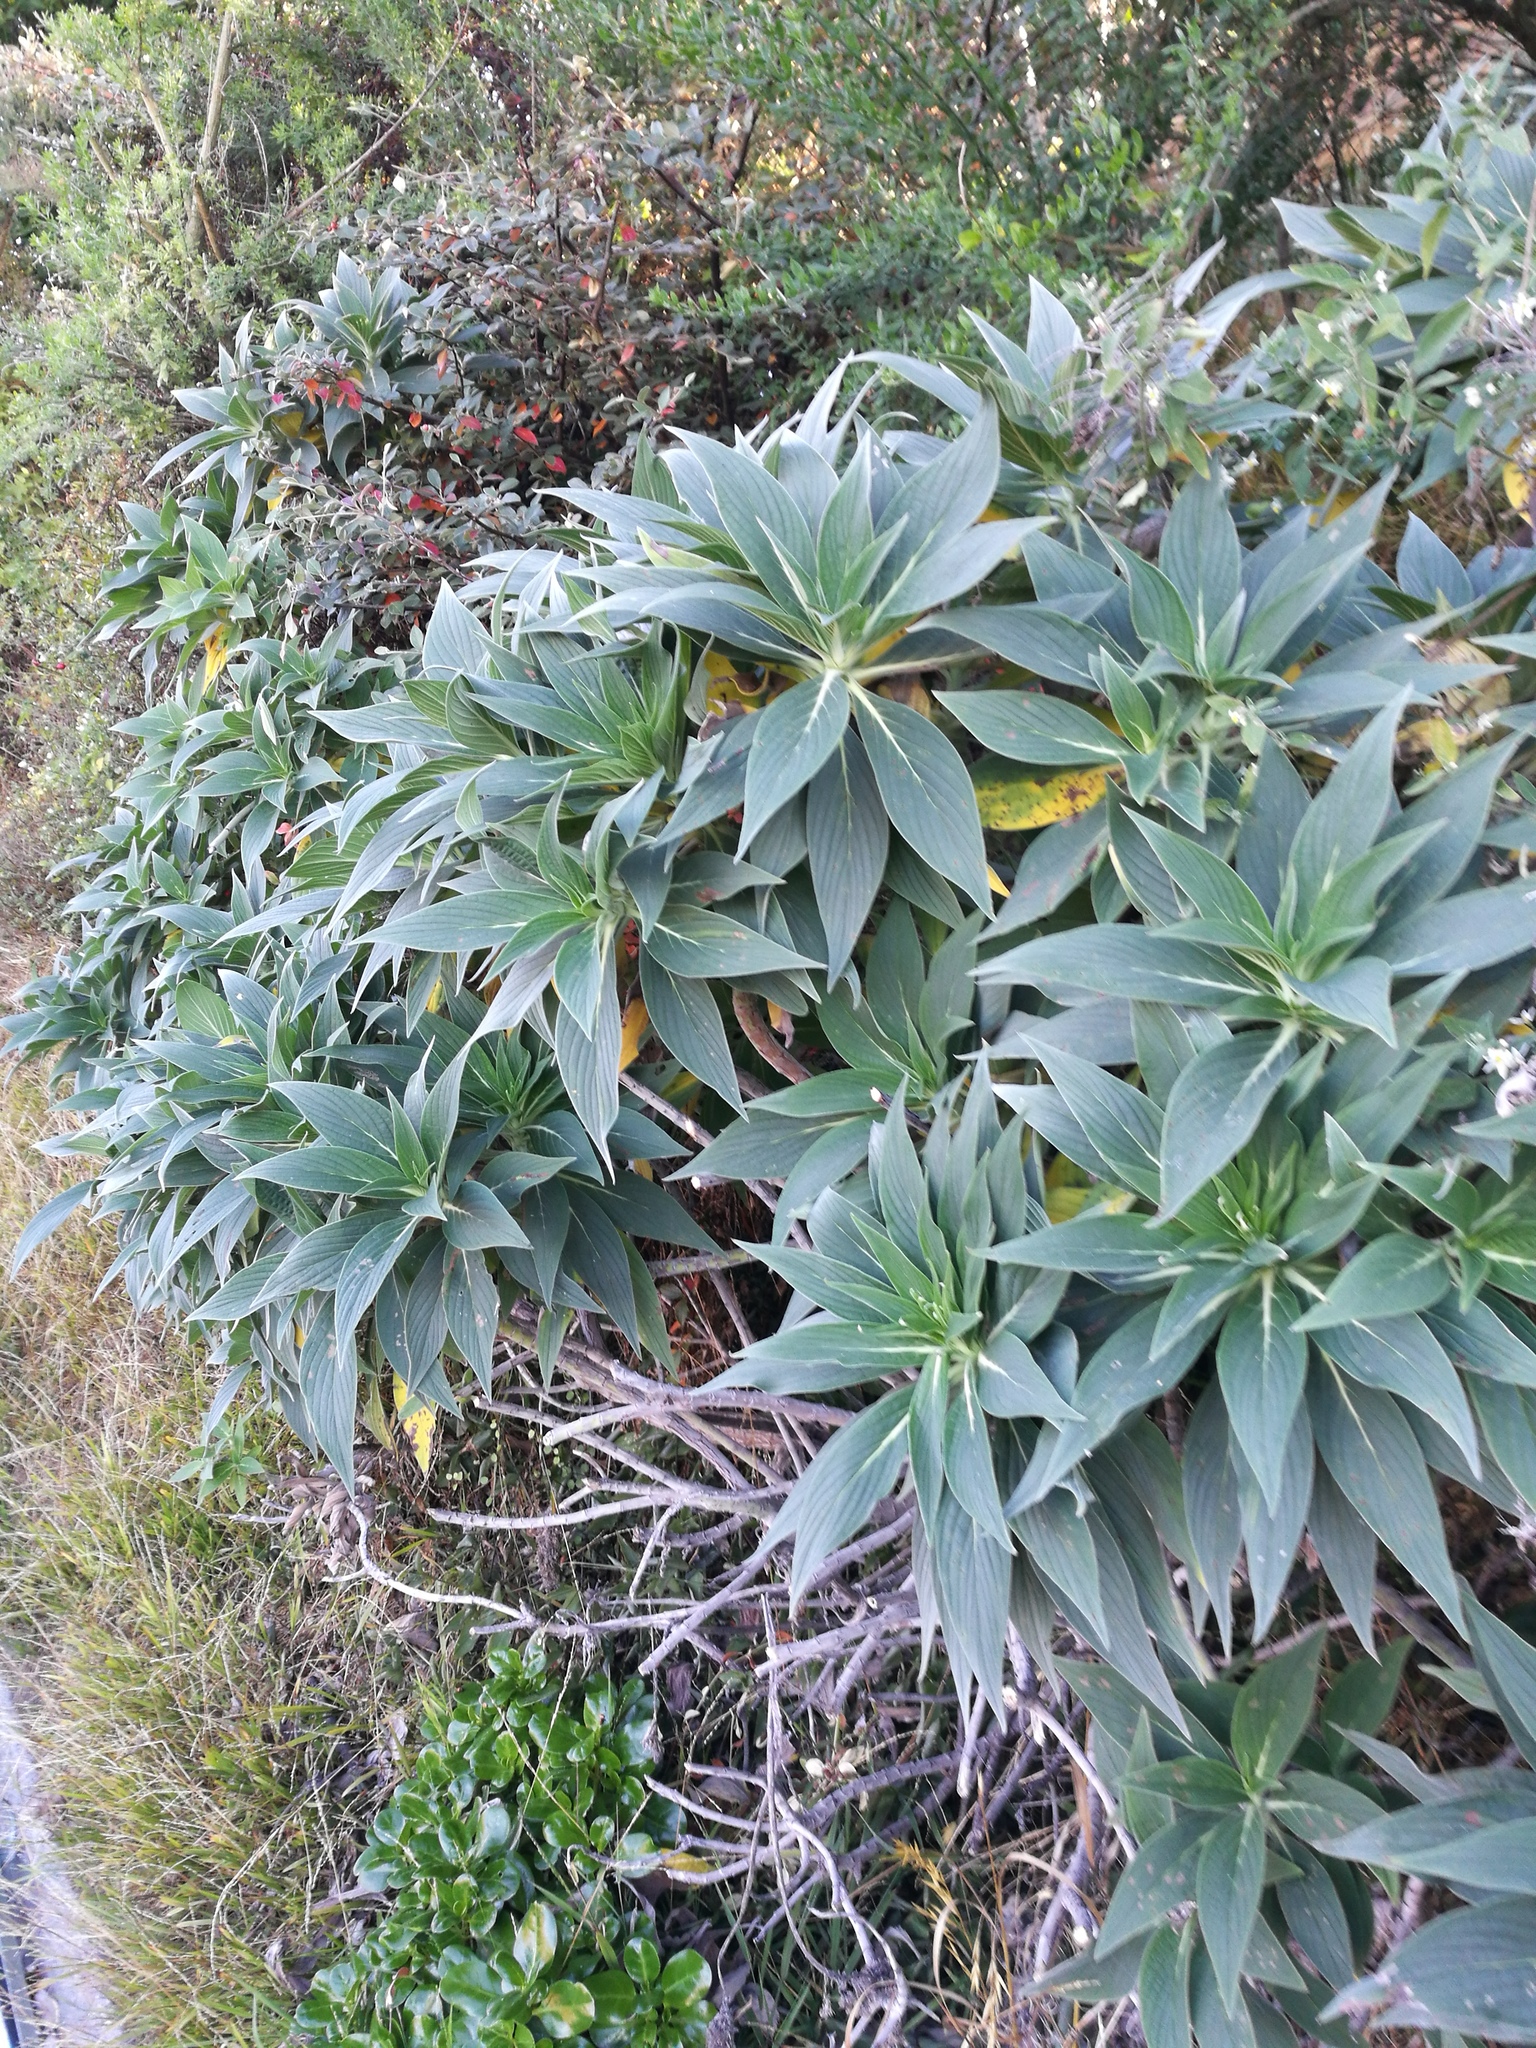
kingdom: Plantae
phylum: Tracheophyta
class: Magnoliopsida
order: Boraginales
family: Boraginaceae
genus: Echium
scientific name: Echium candicans
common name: Pride of madeira
